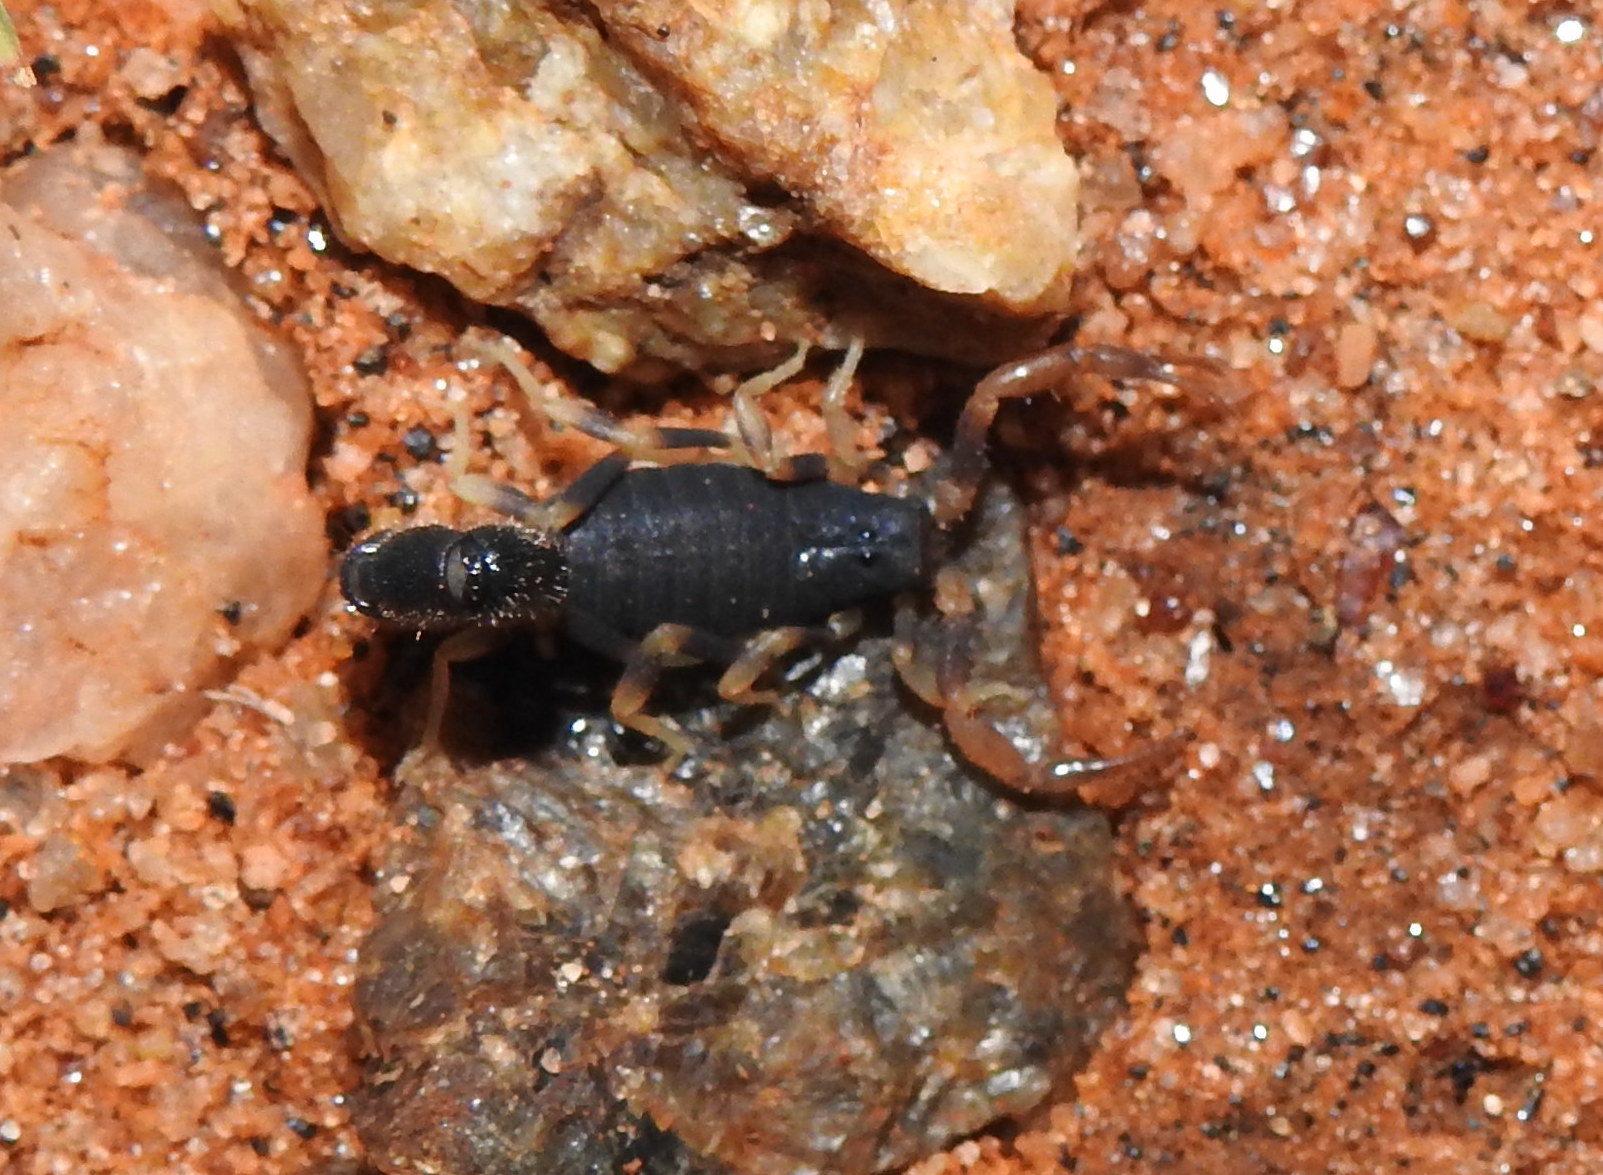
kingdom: Animalia
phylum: Arthropoda
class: Arachnida
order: Scorpiones
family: Buthidae
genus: Charmus
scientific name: Charmus indicus
